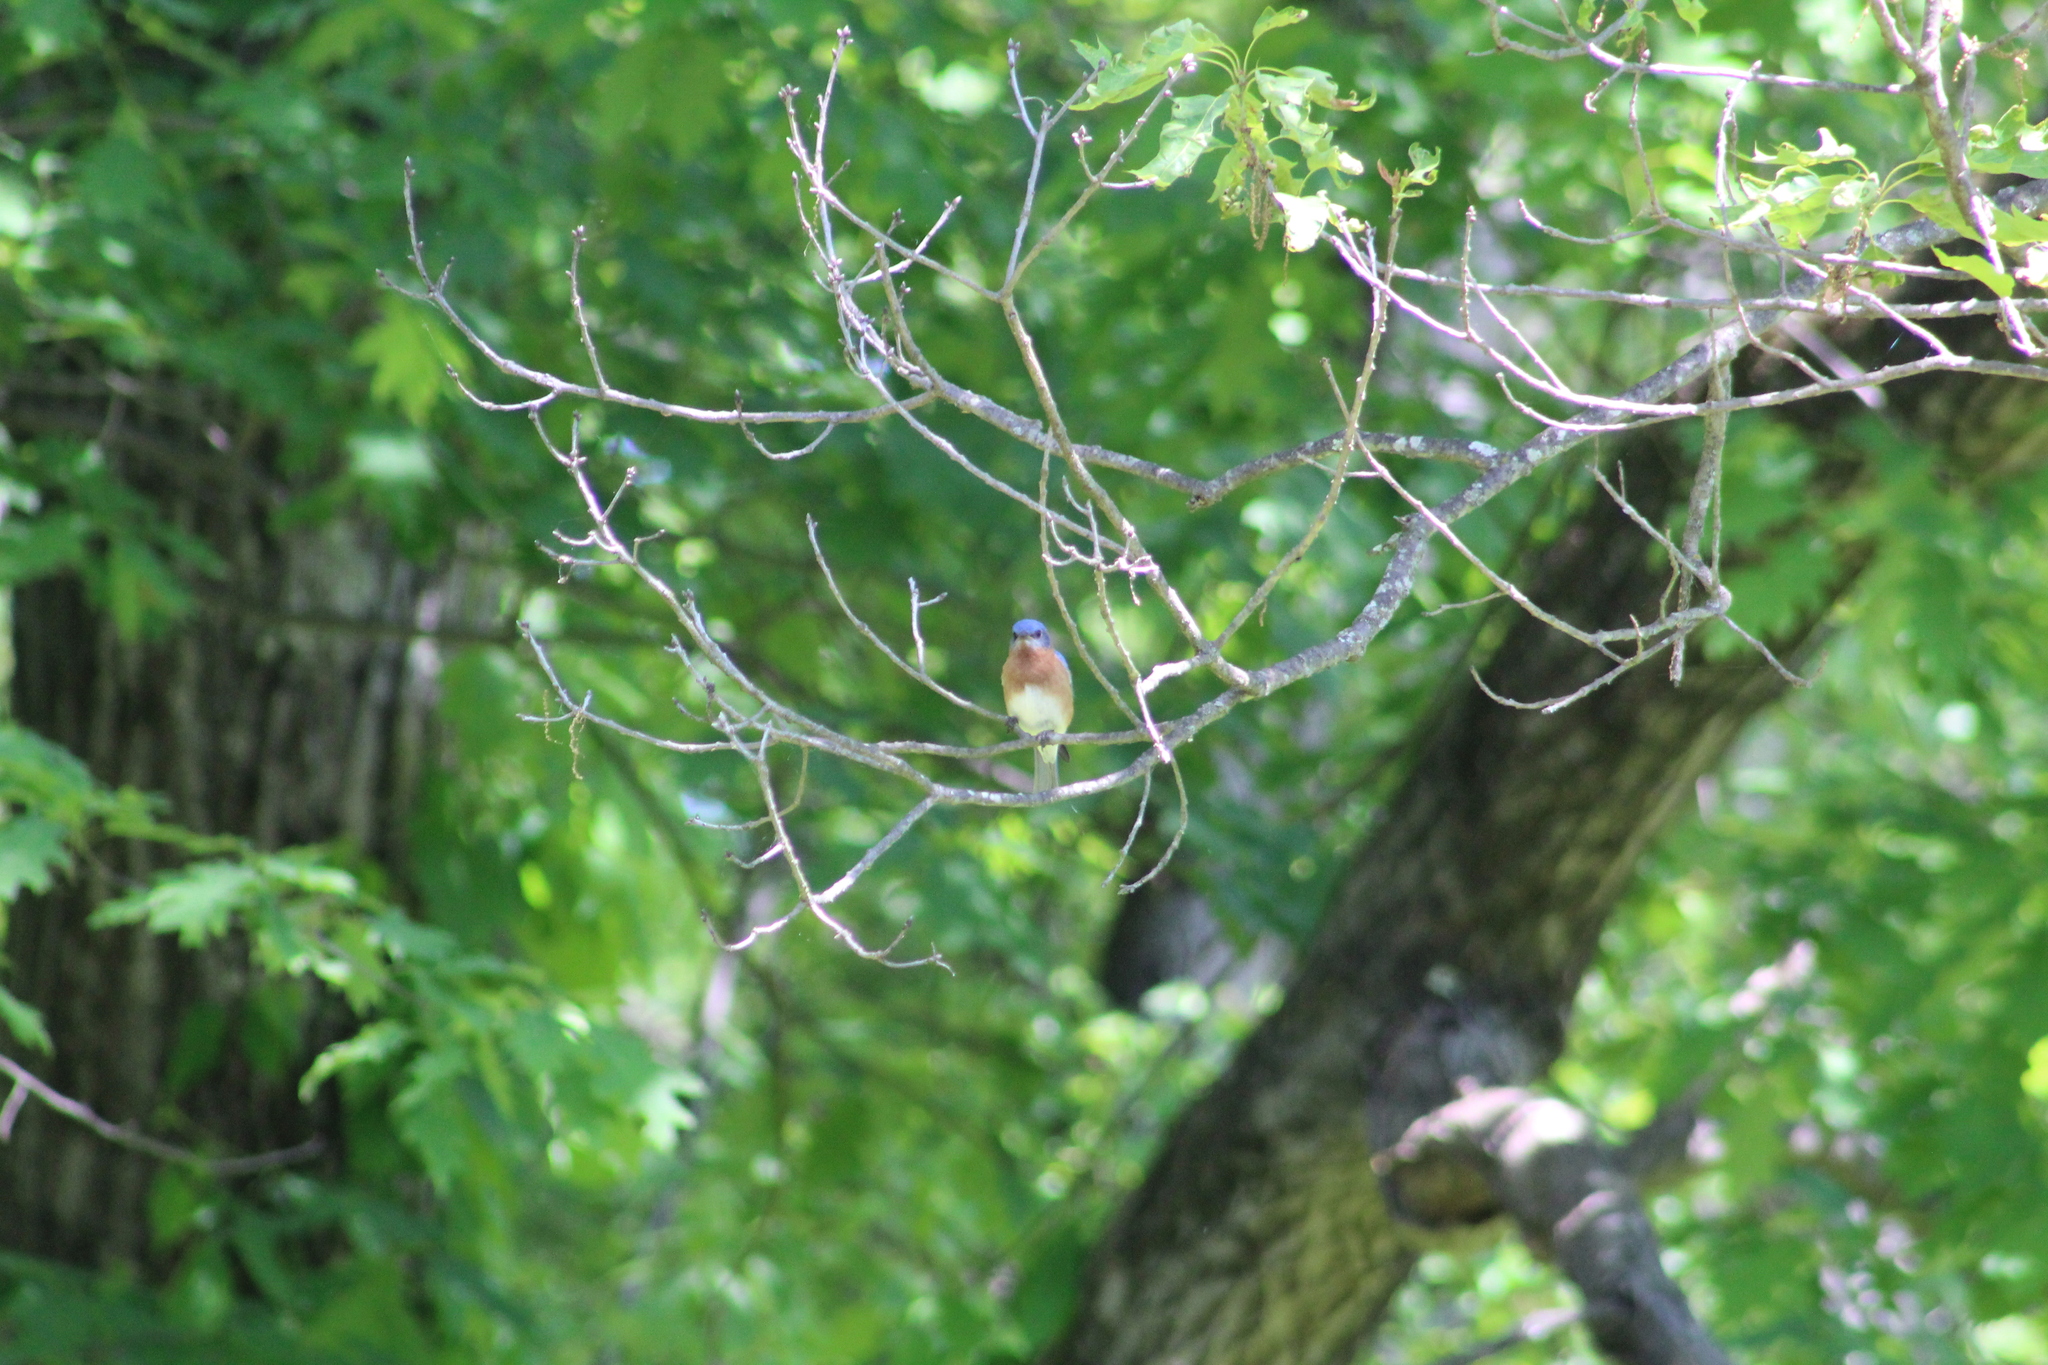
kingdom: Animalia
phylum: Chordata
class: Aves
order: Passeriformes
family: Turdidae
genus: Sialia
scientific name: Sialia sialis
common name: Eastern bluebird
